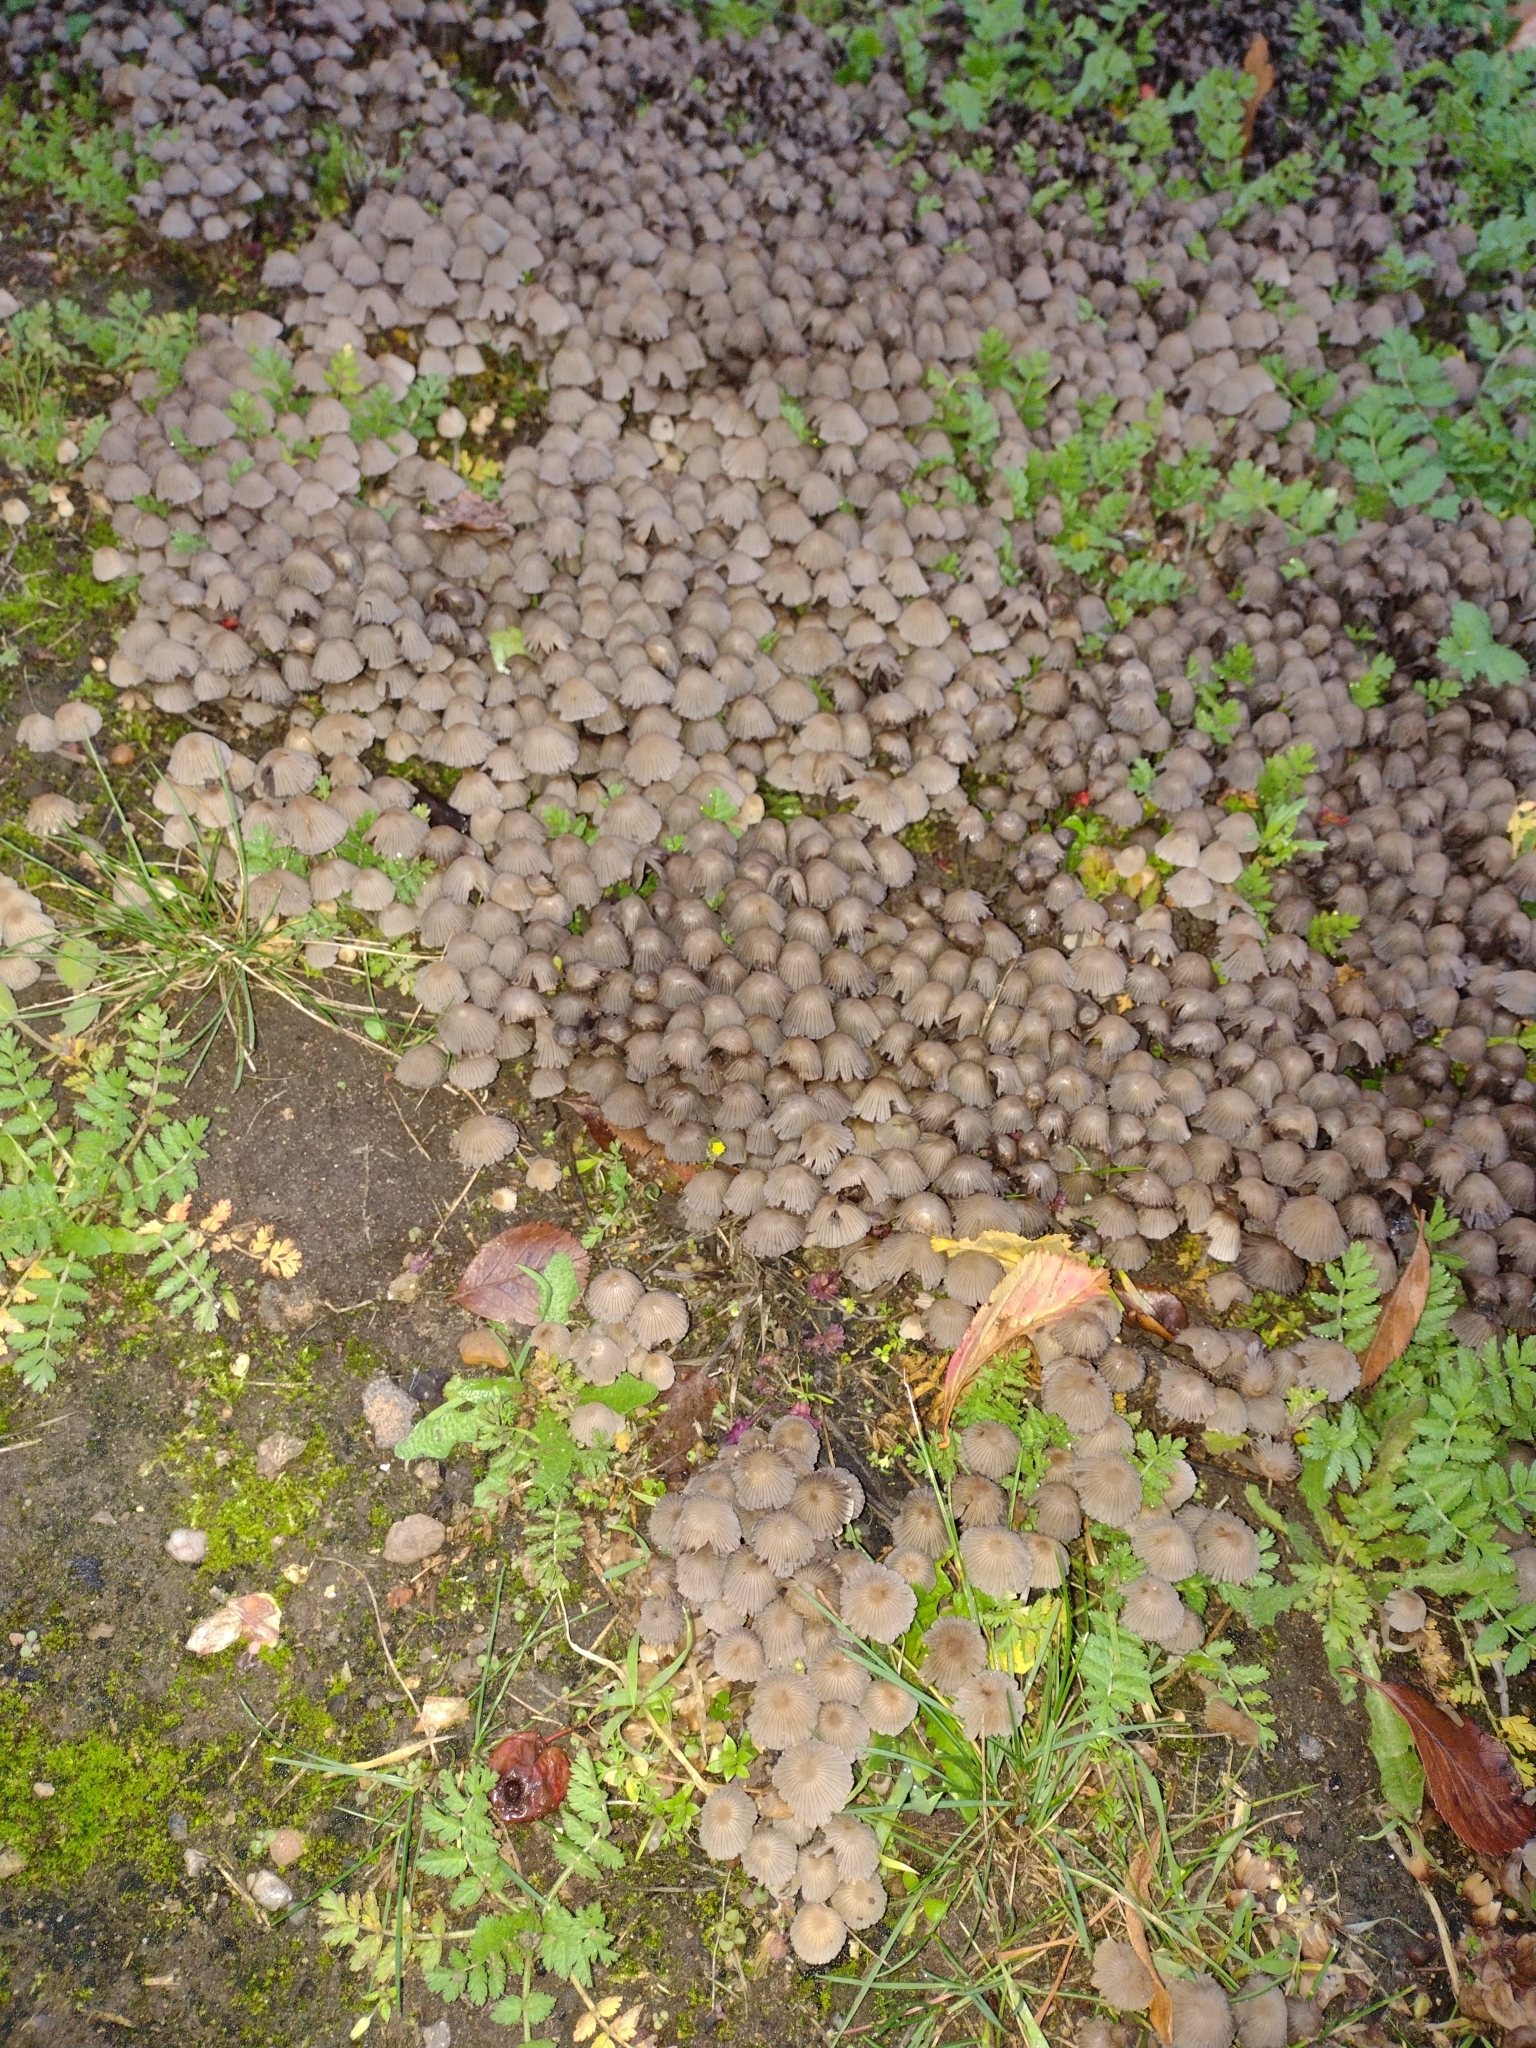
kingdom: Fungi
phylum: Basidiomycota
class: Agaricomycetes
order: Agaricales
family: Psathyrellaceae
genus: Coprinellus
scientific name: Coprinellus disseminatus
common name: Fairies' bonnets
